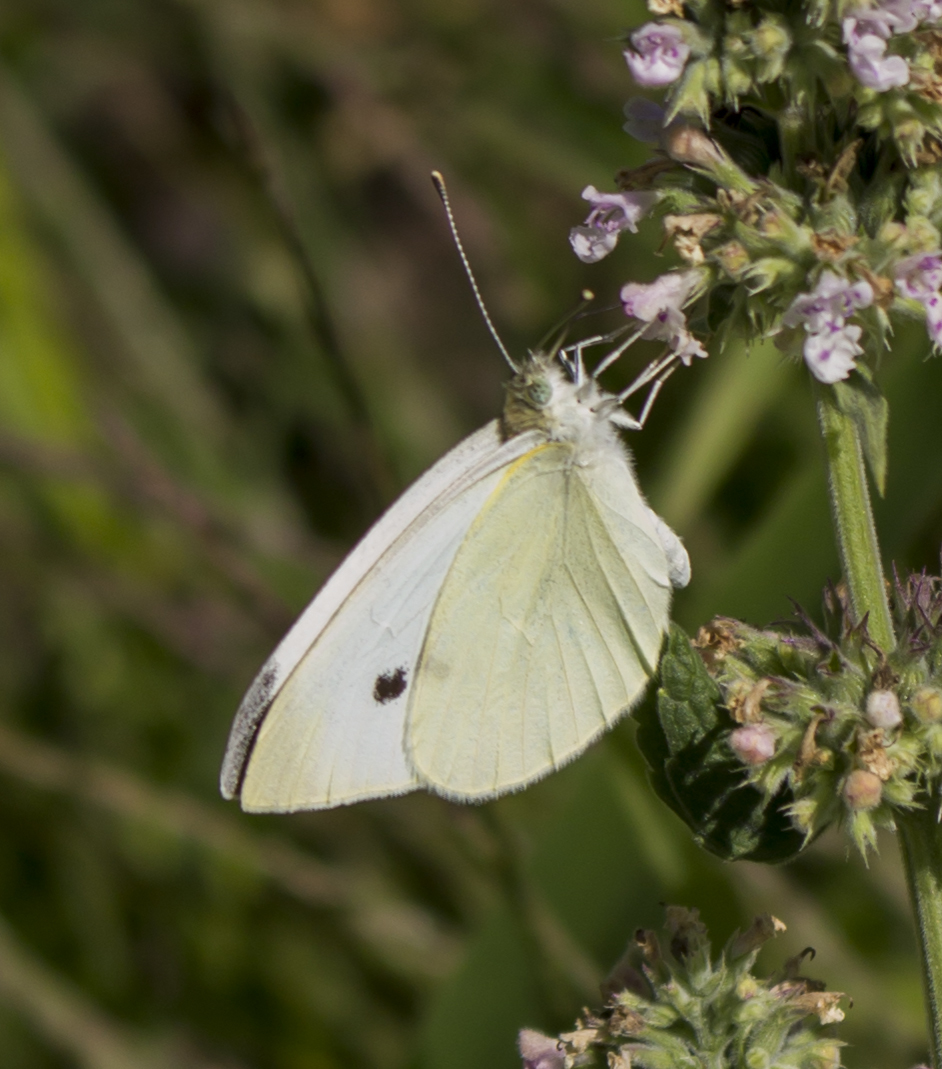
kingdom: Animalia
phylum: Arthropoda
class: Insecta
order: Lepidoptera
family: Pieridae
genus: Pieris
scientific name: Pieris rapae
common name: Small white
